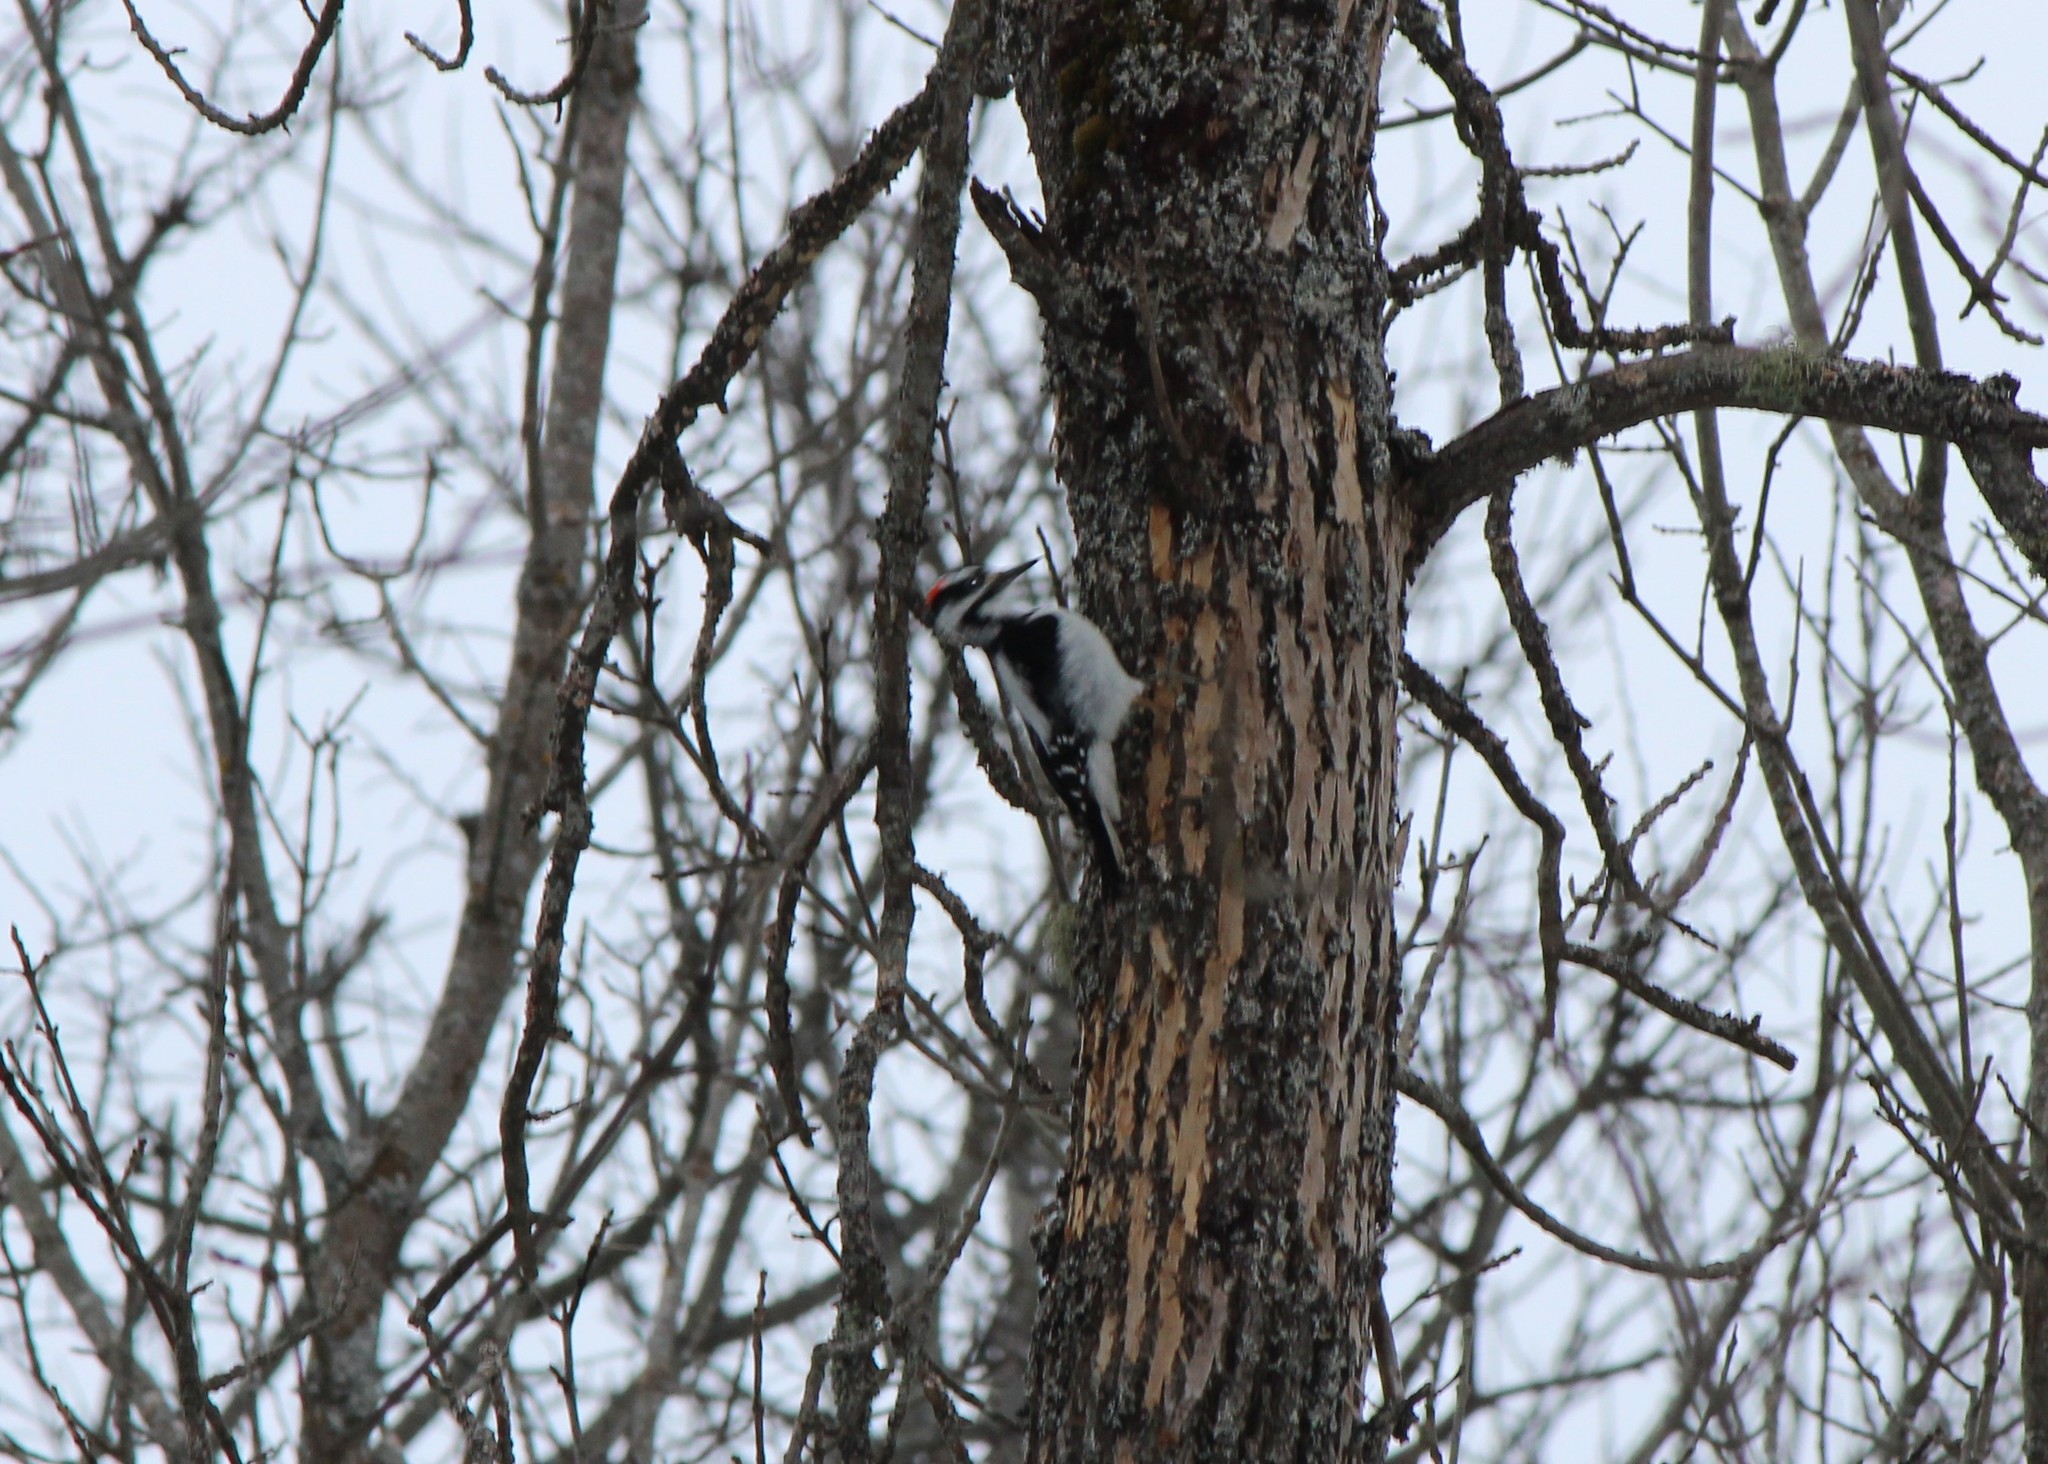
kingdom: Animalia
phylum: Chordata
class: Aves
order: Piciformes
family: Picidae
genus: Leuconotopicus
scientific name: Leuconotopicus villosus
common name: Hairy woodpecker
